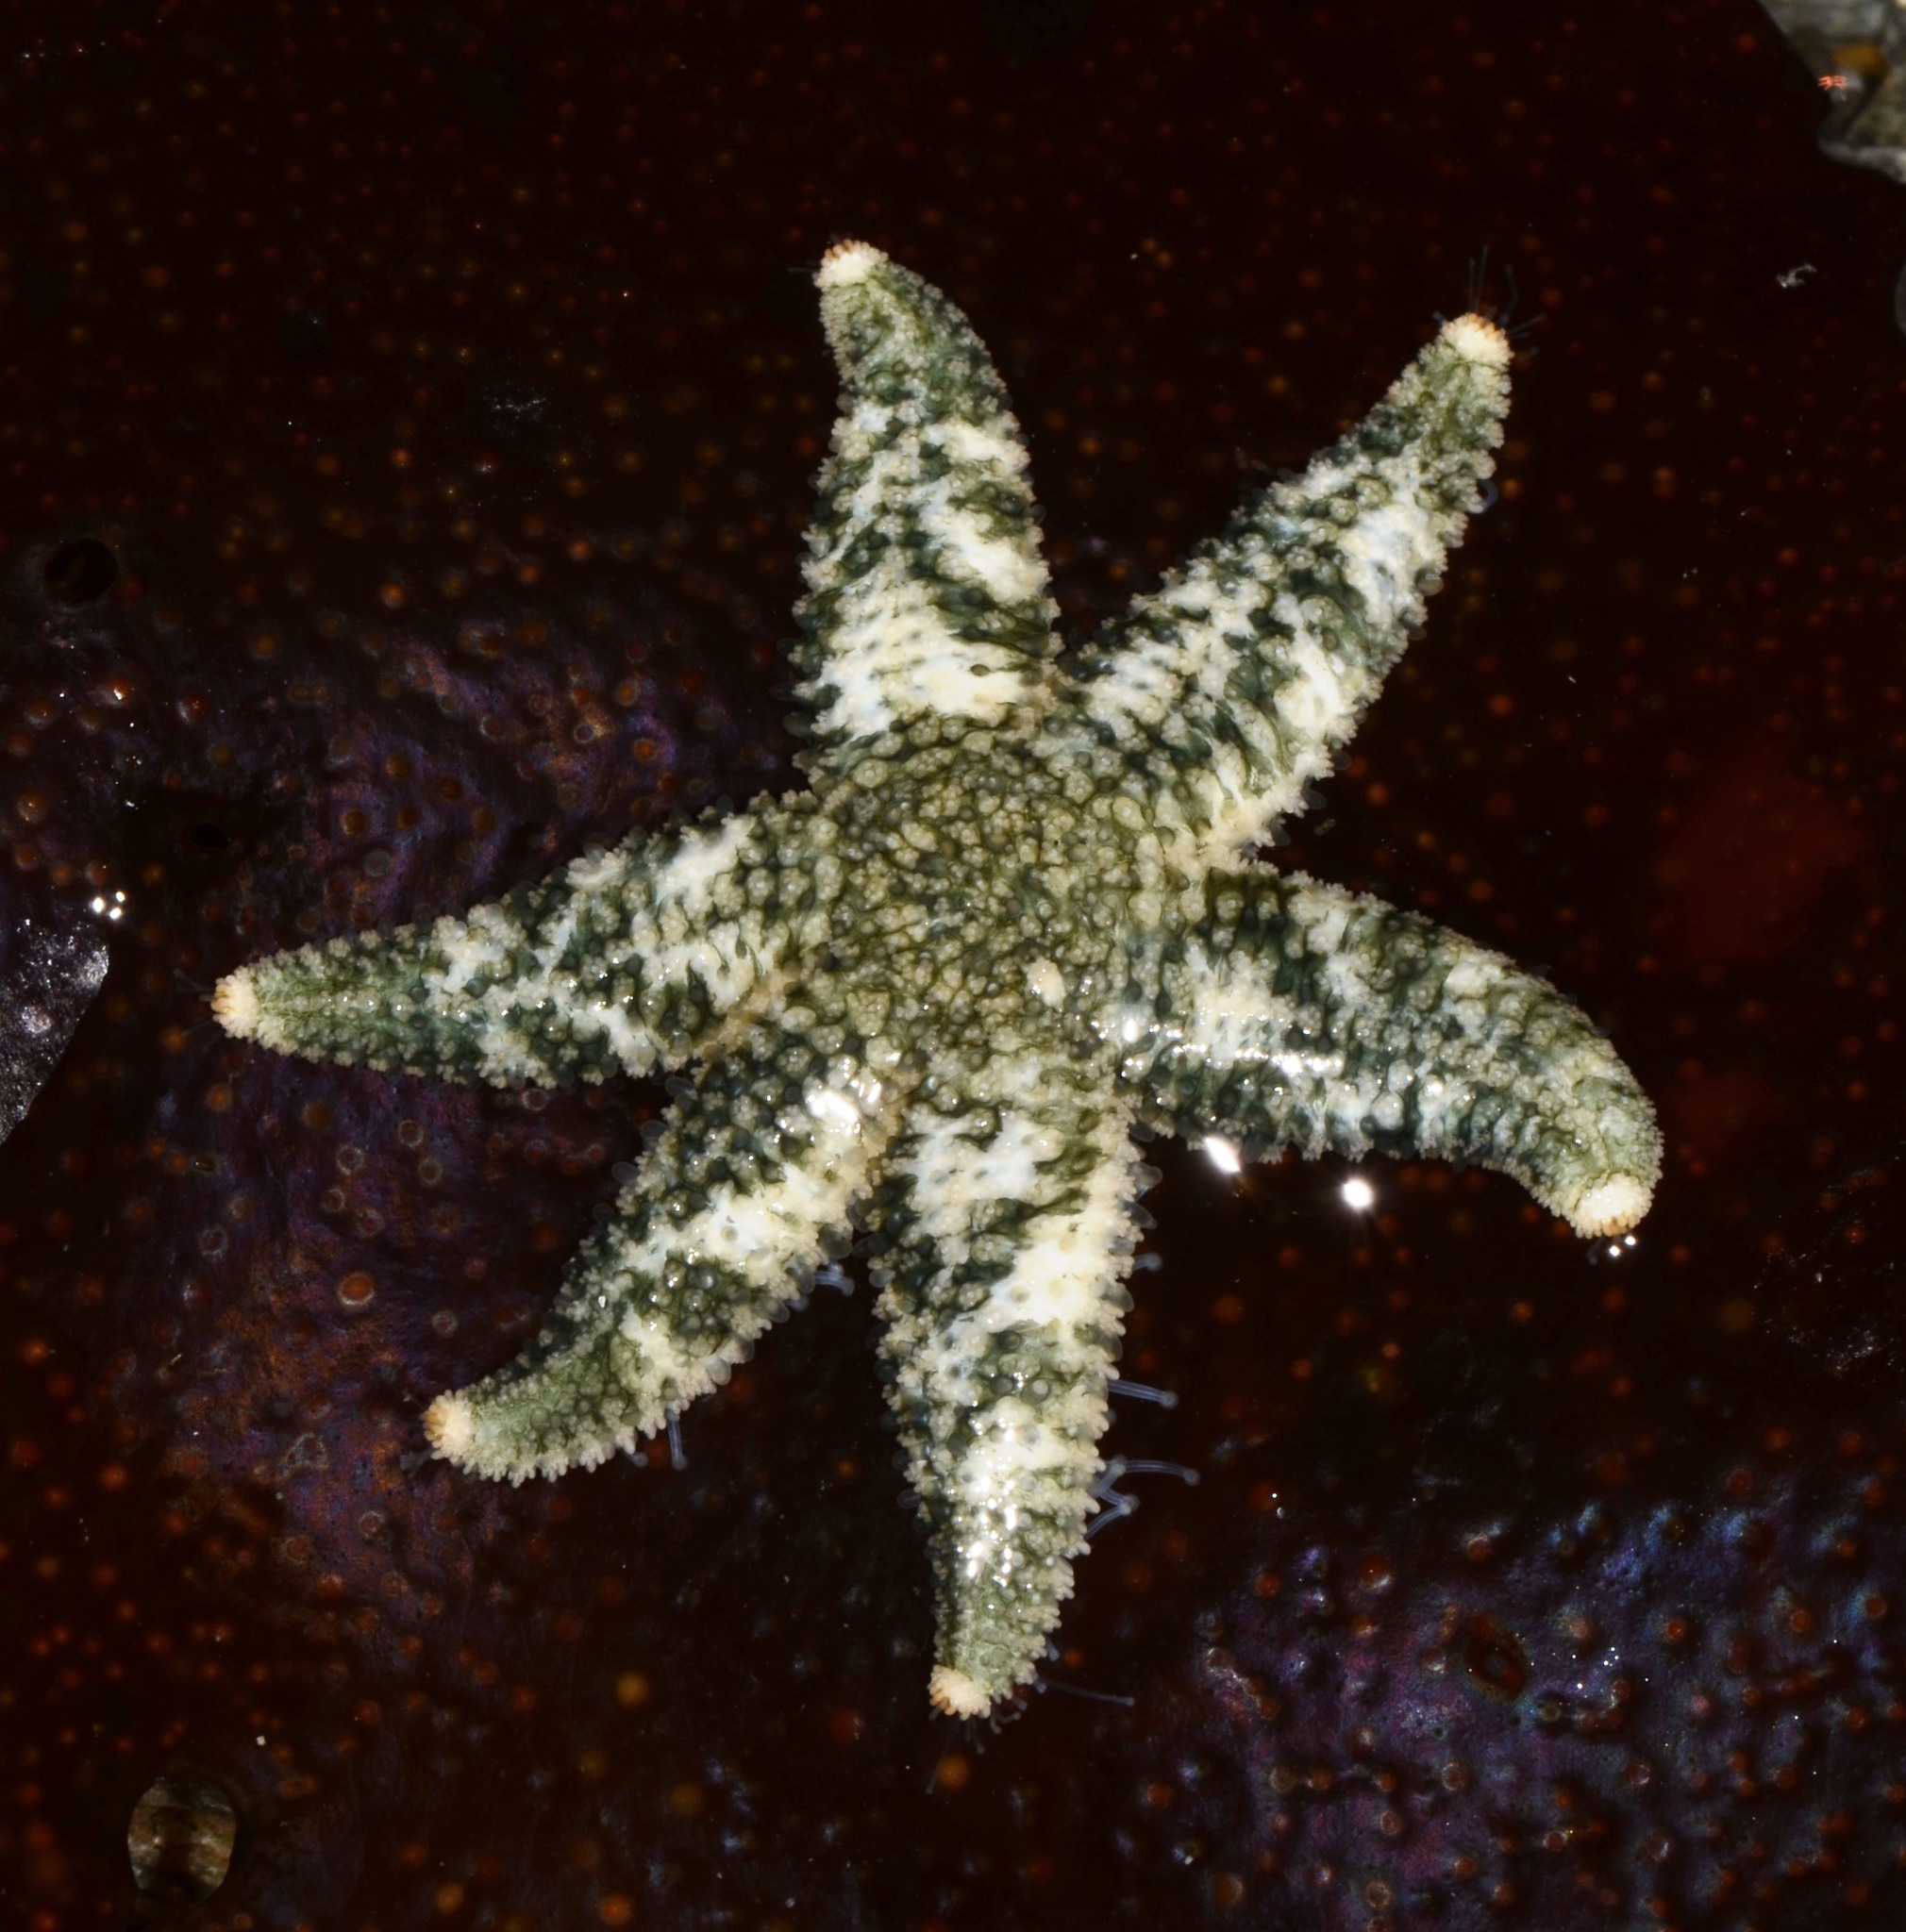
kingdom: Animalia
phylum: Echinodermata
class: Asteroidea
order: Forcipulatida
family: Asteriidae
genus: Leptasterias
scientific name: Leptasterias hexactis
